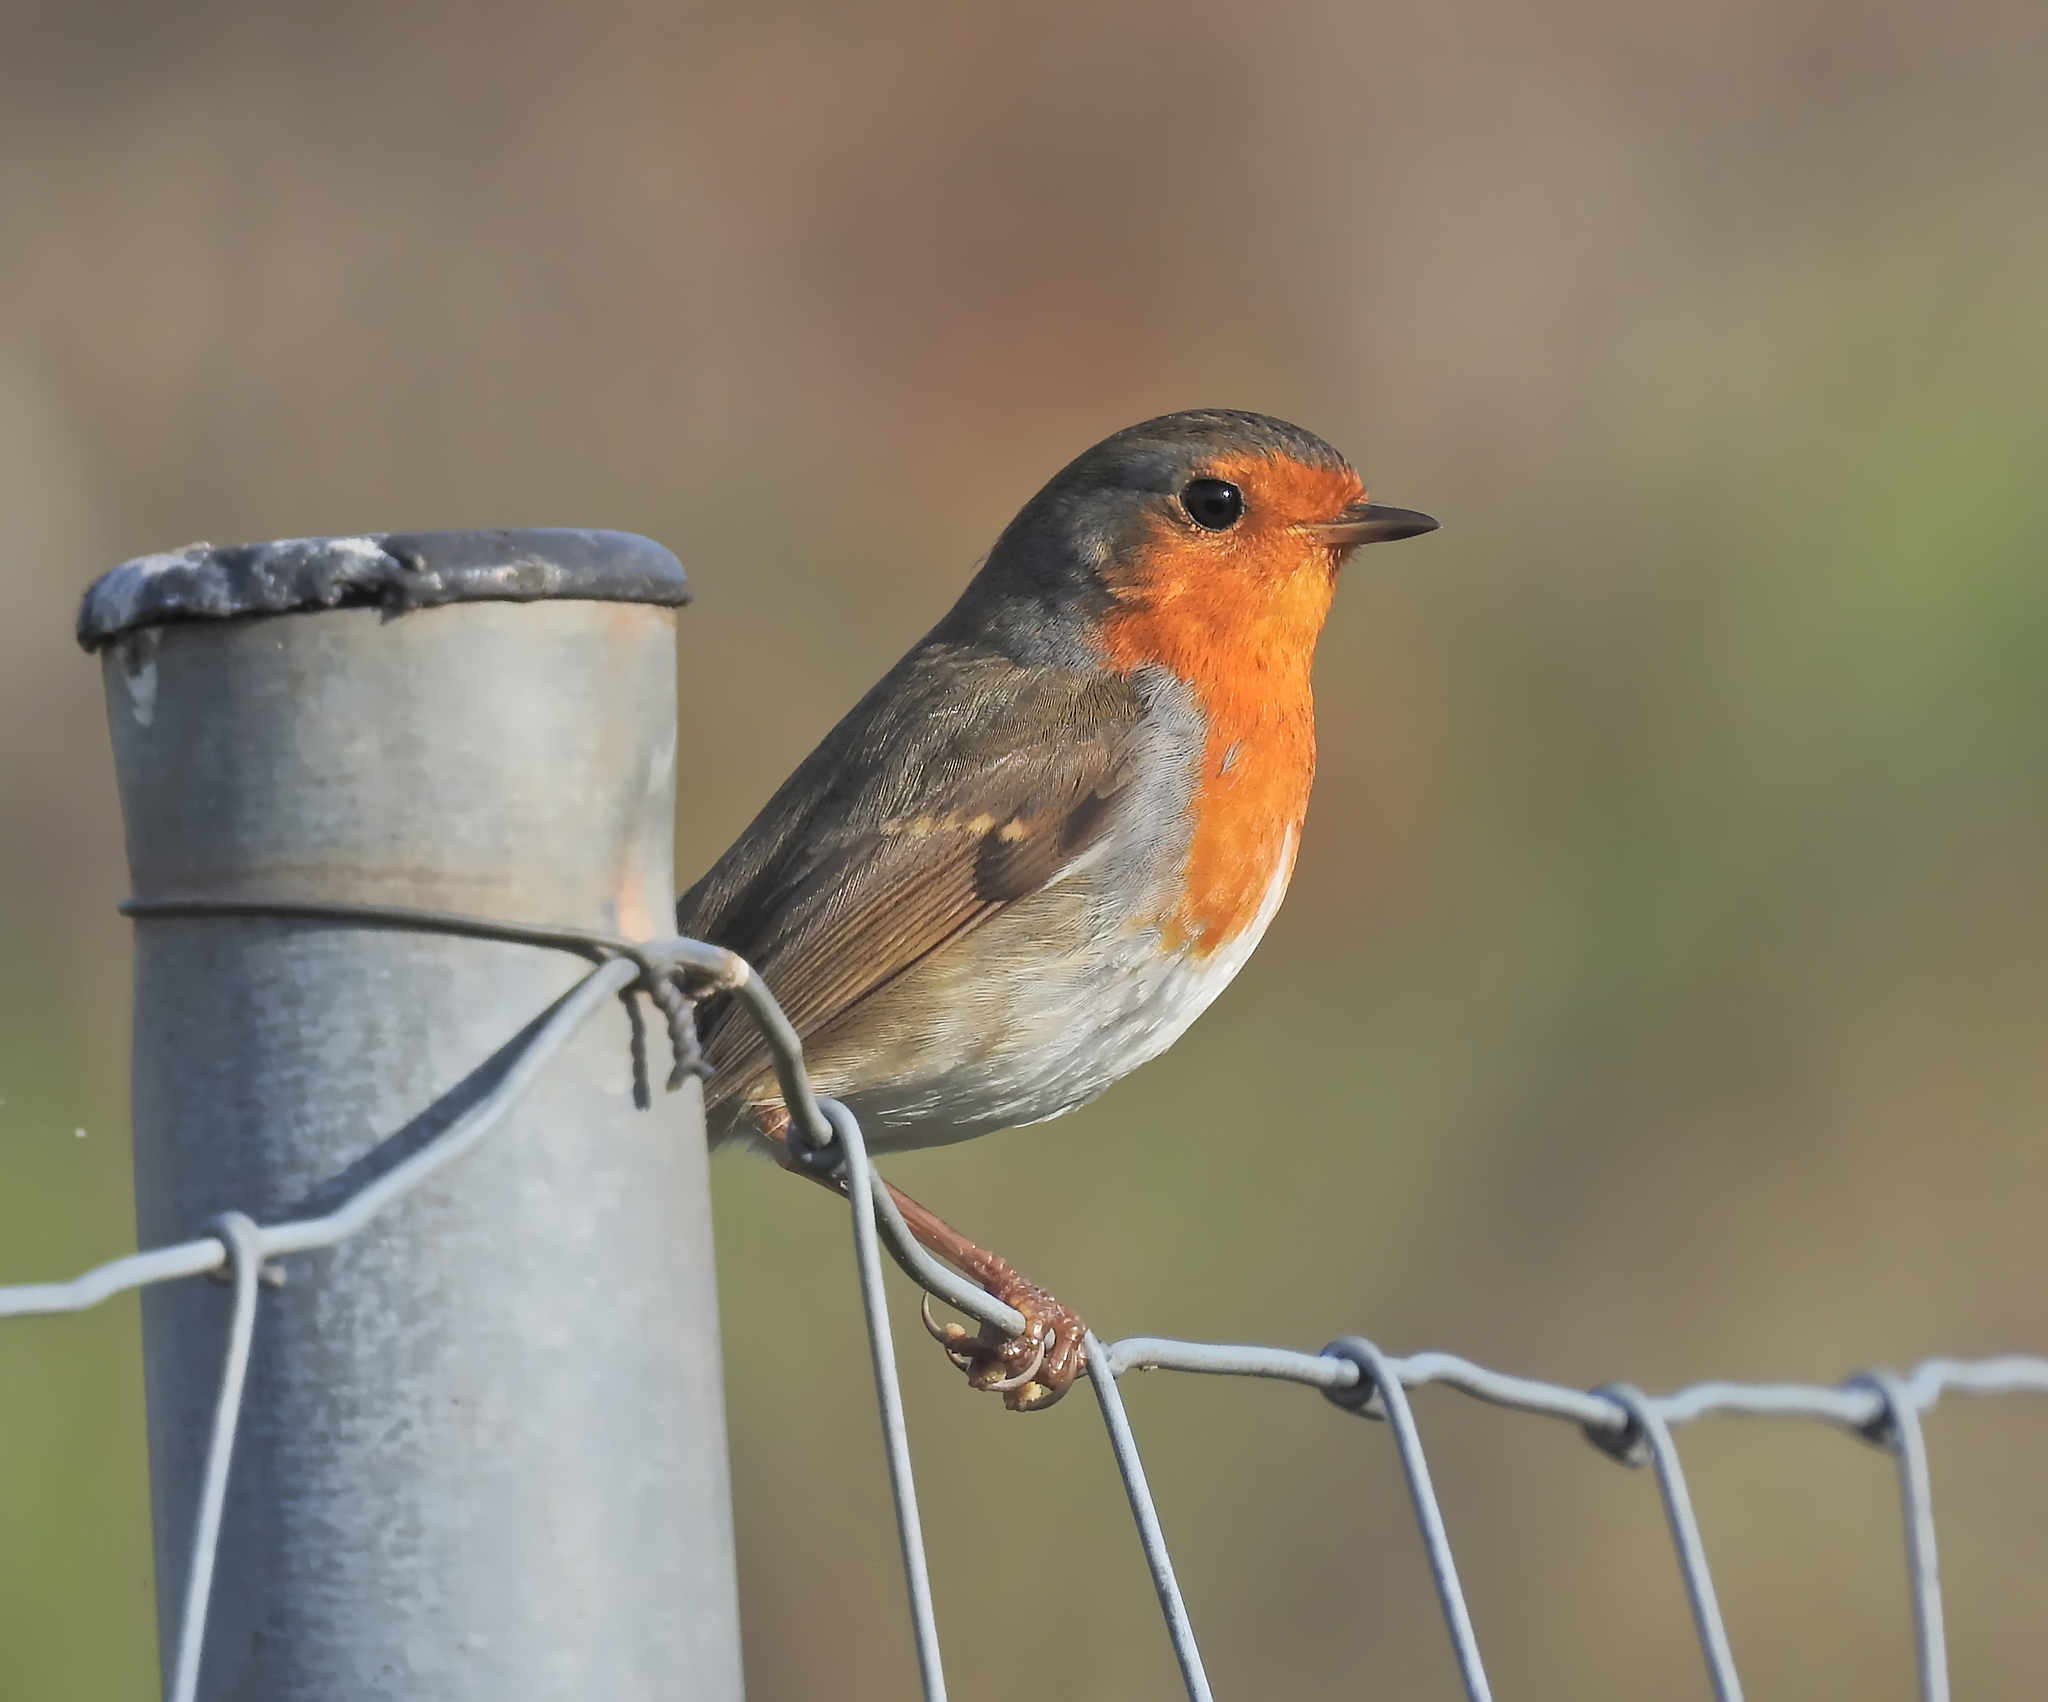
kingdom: Animalia
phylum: Chordata
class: Aves
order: Passeriformes
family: Muscicapidae
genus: Erithacus
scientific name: Erithacus rubecula
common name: European robin
